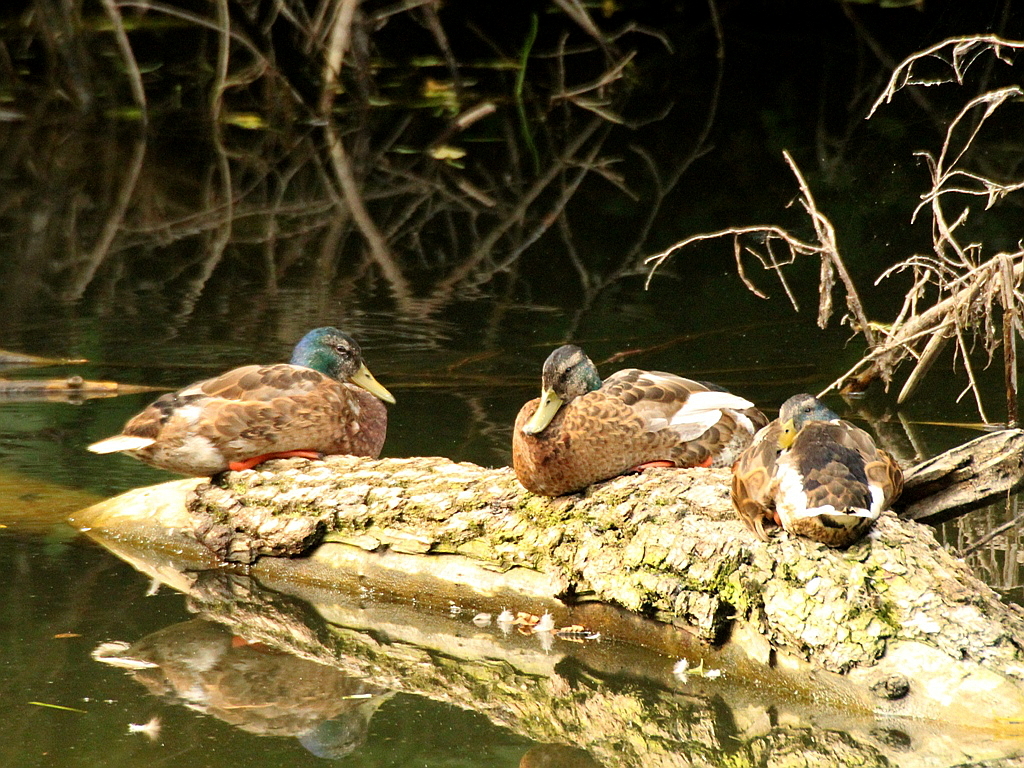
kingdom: Animalia
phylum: Chordata
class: Aves
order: Anseriformes
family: Anatidae
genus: Anas
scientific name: Anas platyrhynchos
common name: Mallard
